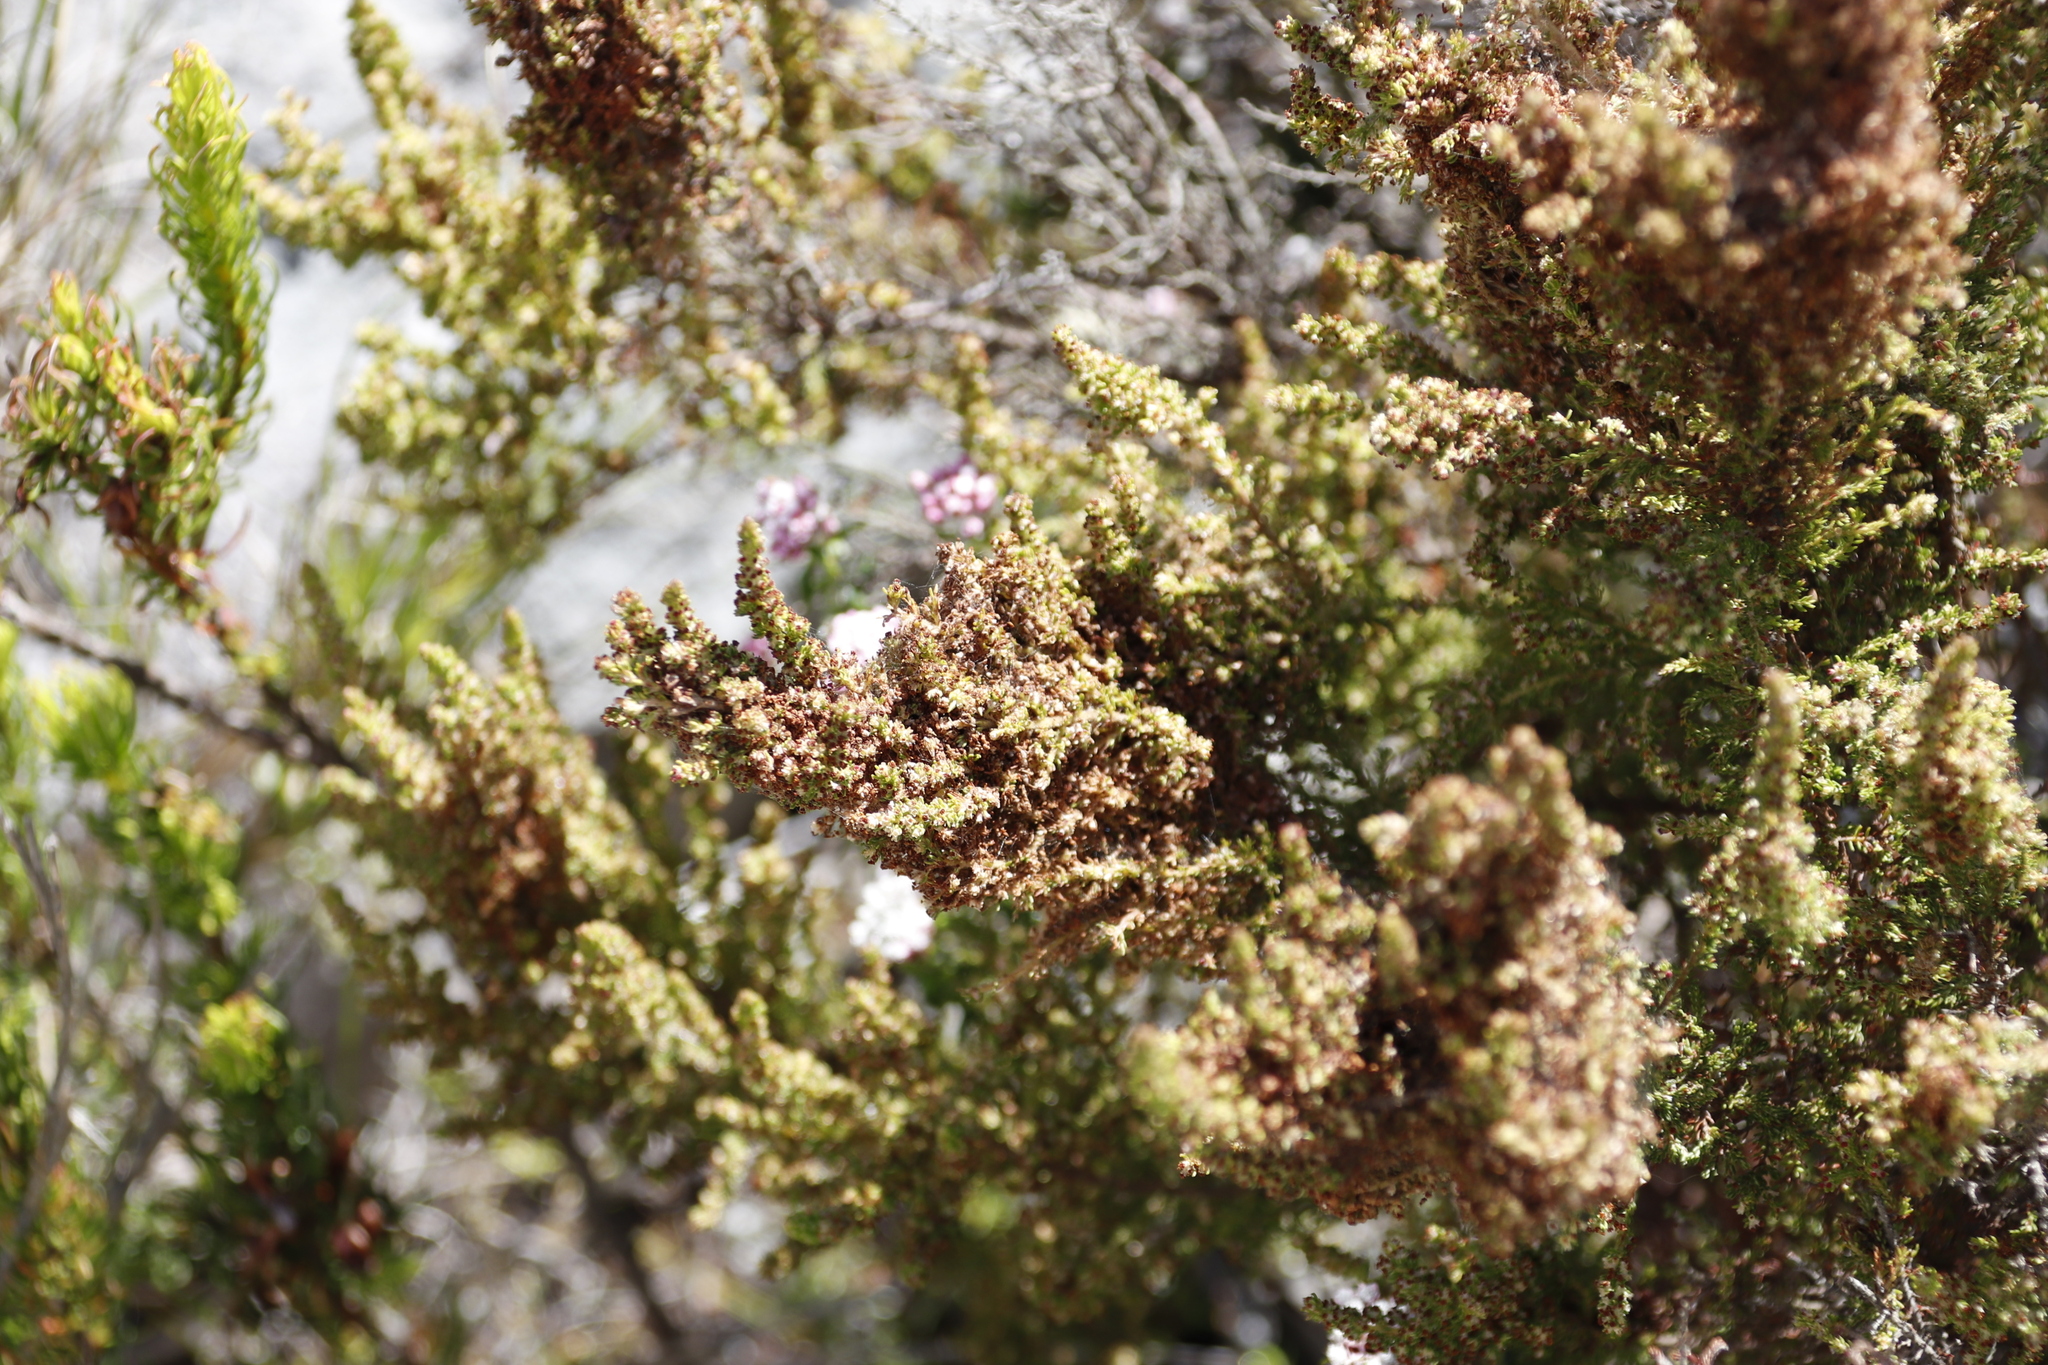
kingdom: Plantae
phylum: Tracheophyta
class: Magnoliopsida
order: Ericales
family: Ericaceae
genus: Erica
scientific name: Erica muscosa
